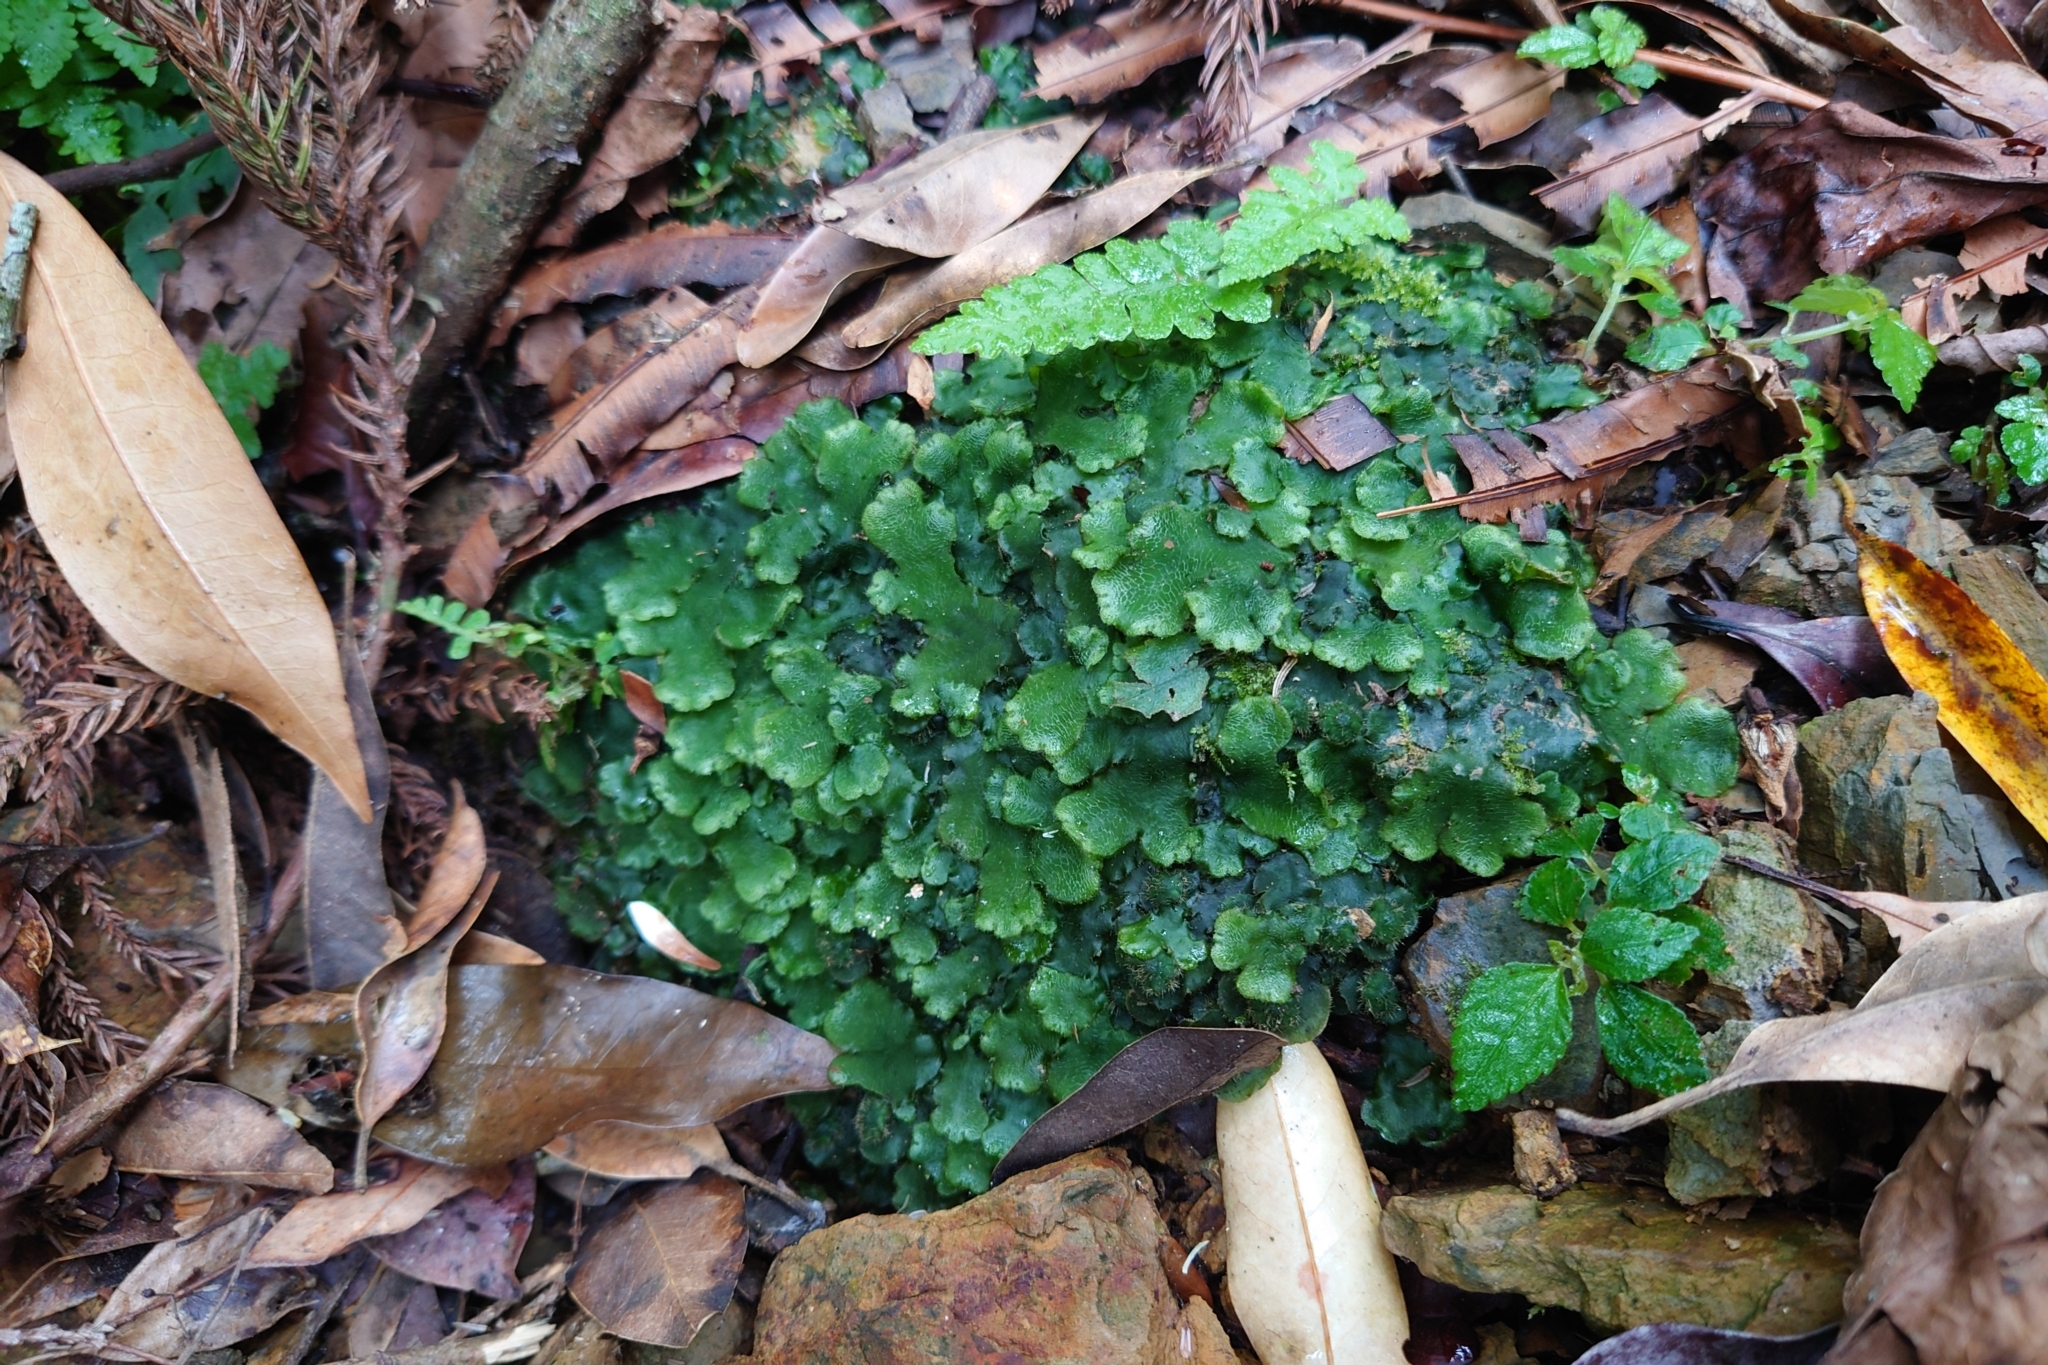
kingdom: Plantae
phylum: Marchantiophyta
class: Marchantiopsida
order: Marchantiales
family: Dumortieraceae
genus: Dumortiera
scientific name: Dumortiera hirsuta
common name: Dumortier's liverwort
